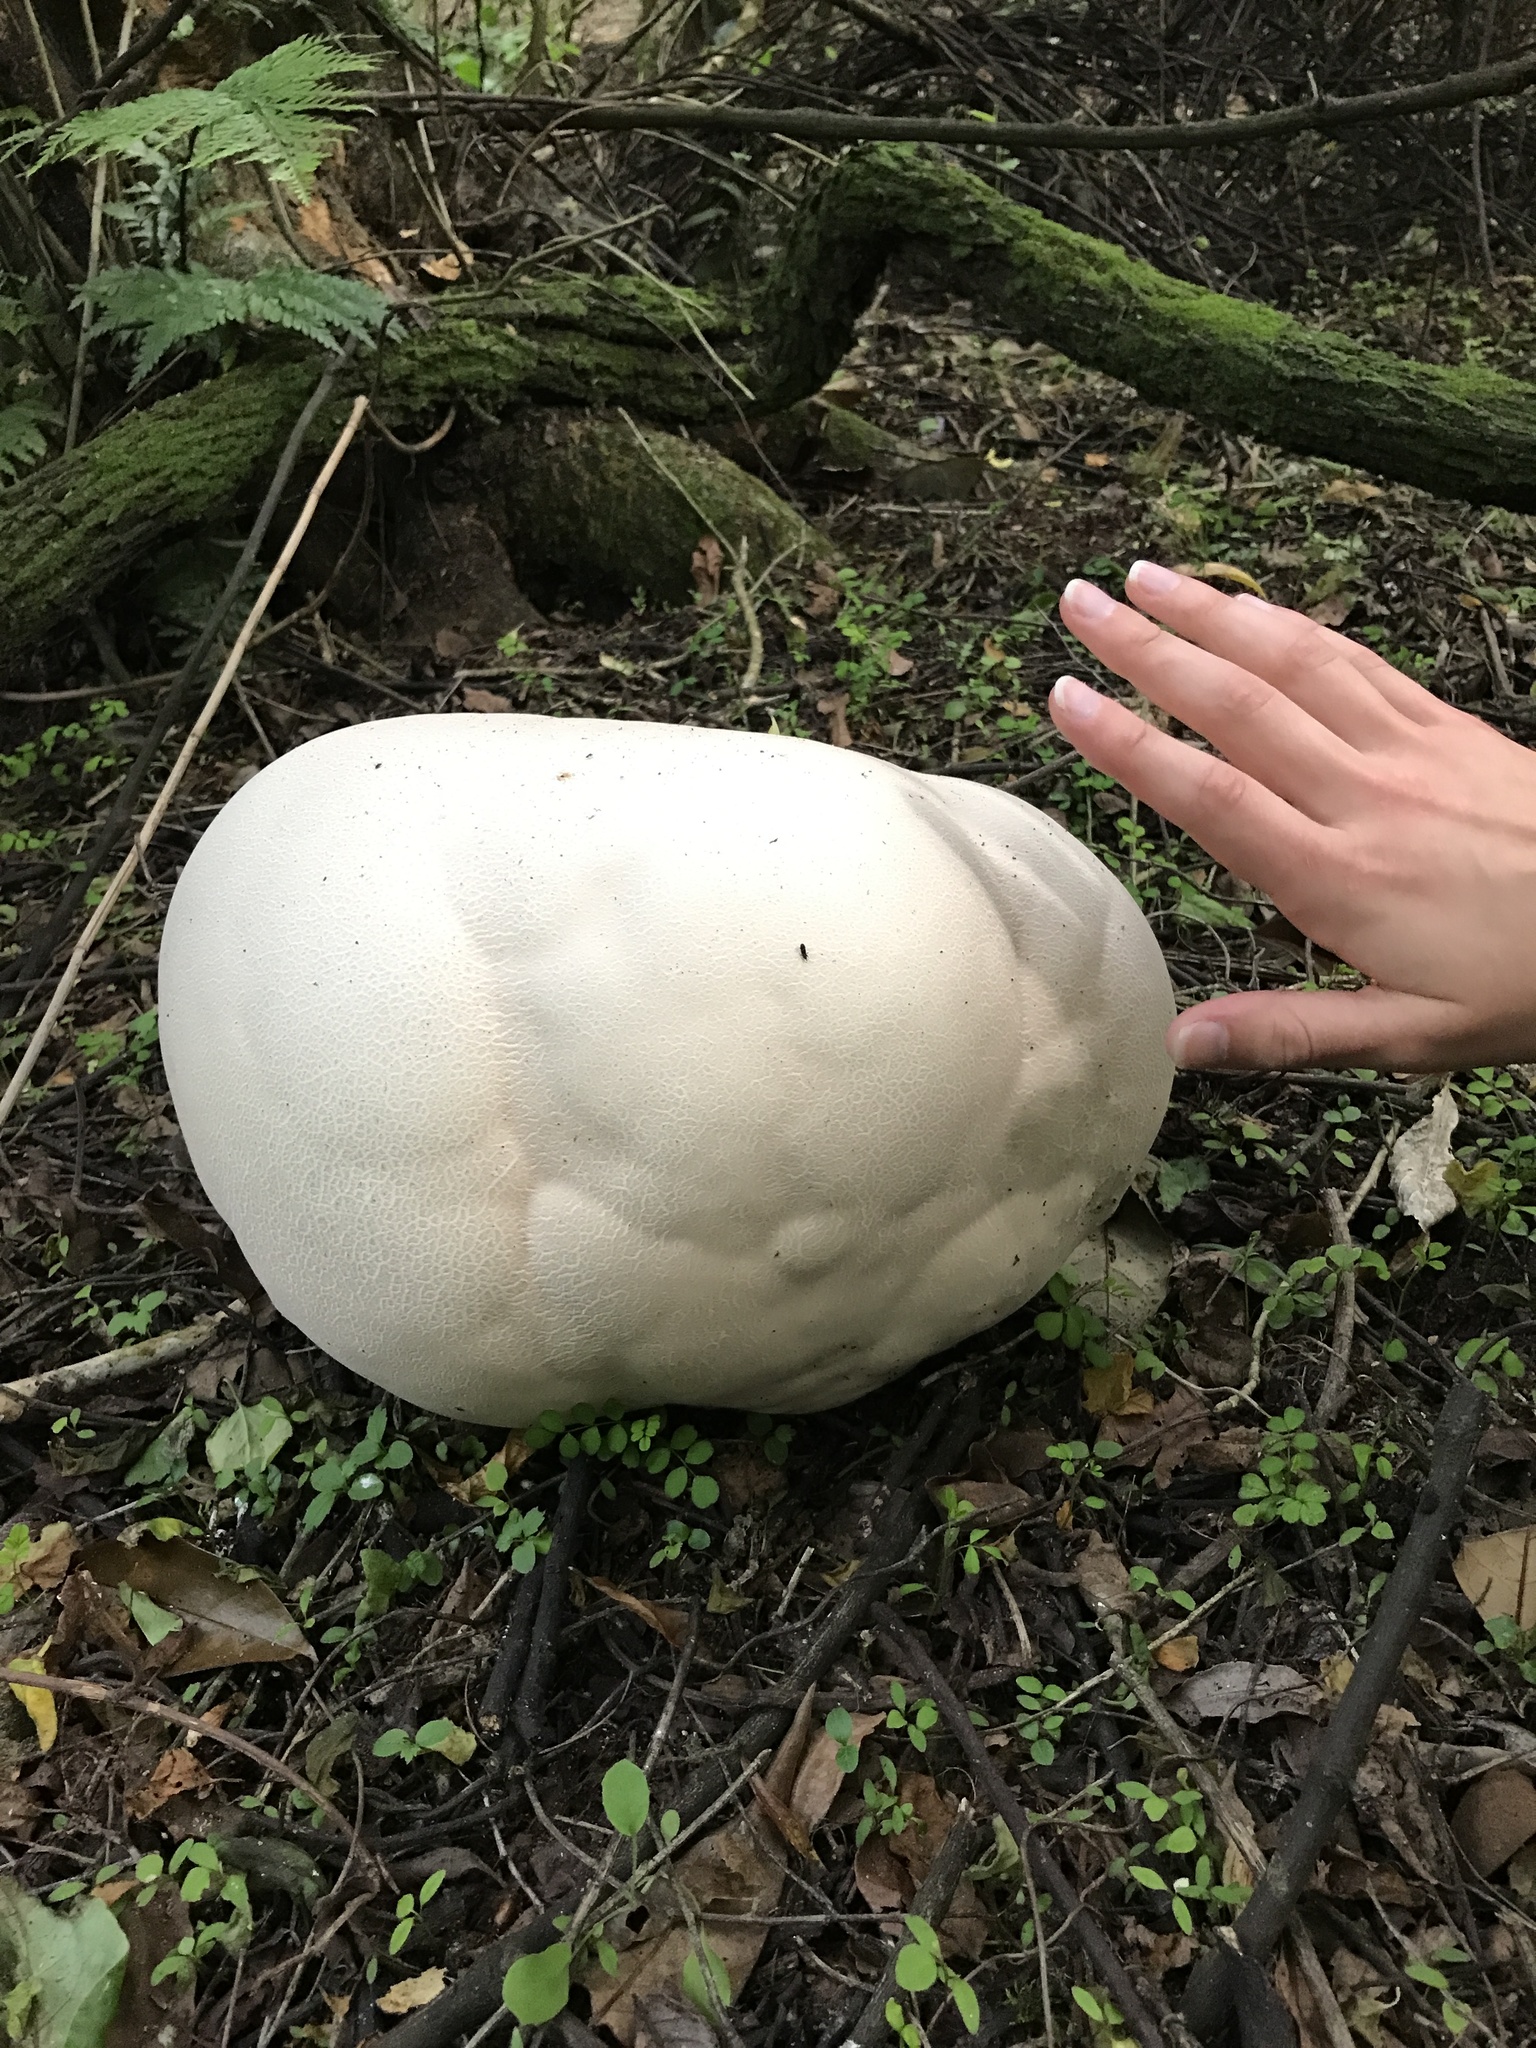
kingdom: Fungi
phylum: Basidiomycota
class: Agaricomycetes
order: Agaricales
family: Lycoperdaceae
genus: Calvatia
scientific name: Calvatia gigantea
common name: Giant puffball
